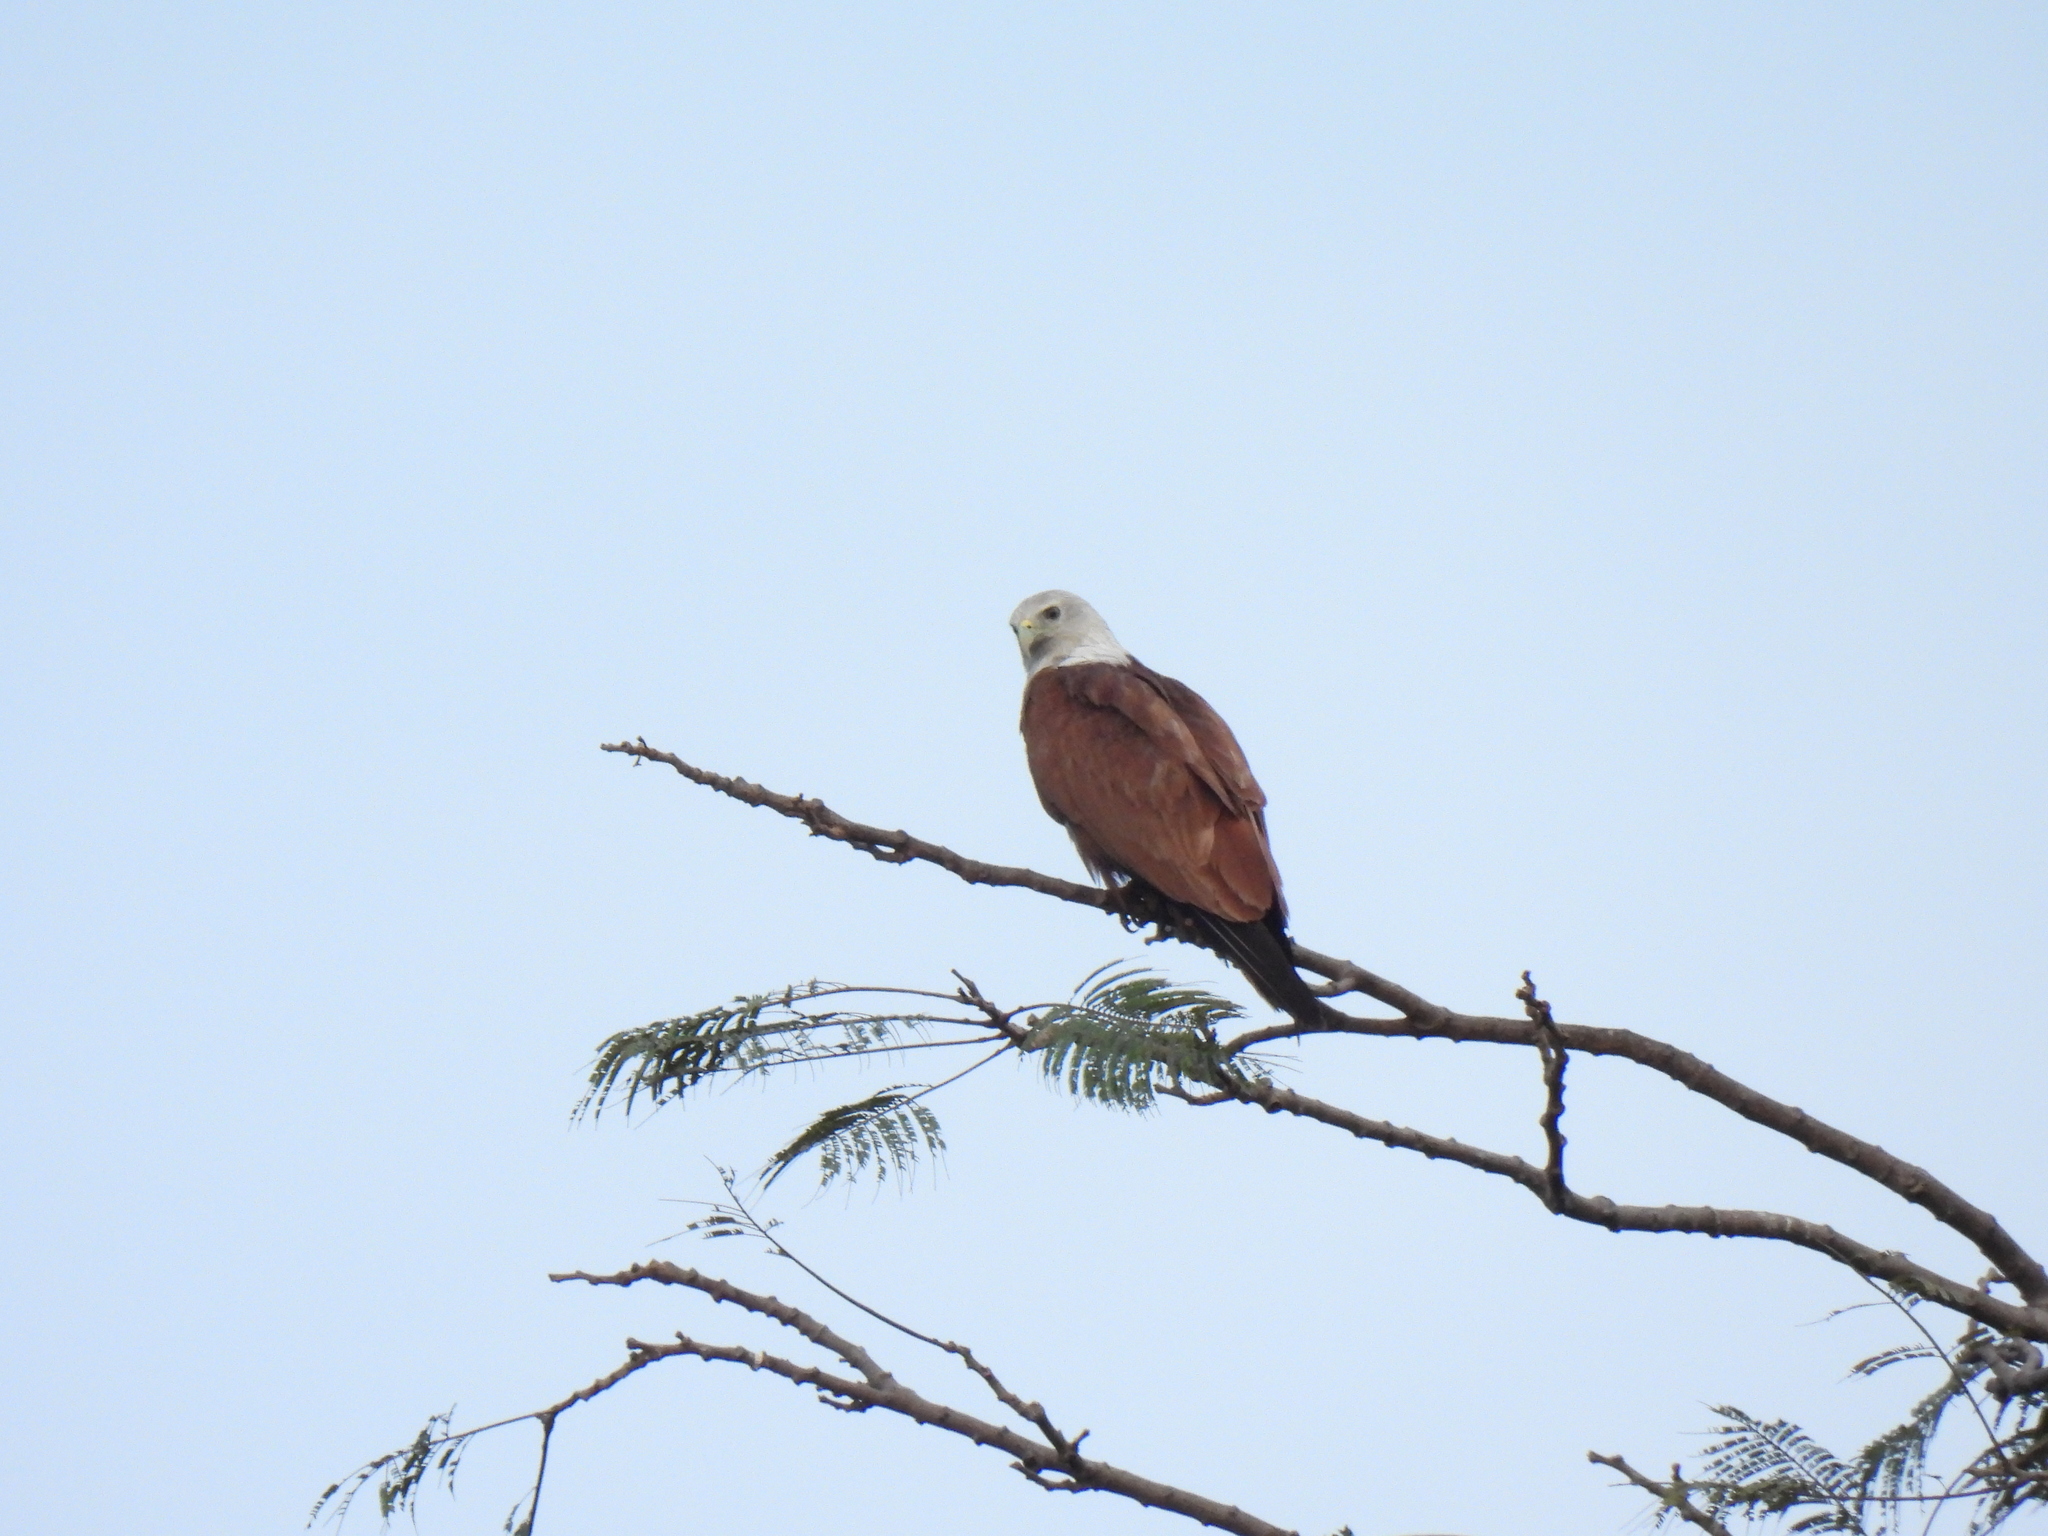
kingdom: Animalia
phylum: Chordata
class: Aves
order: Accipitriformes
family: Accipitridae
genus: Haliastur
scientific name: Haliastur indus
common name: Brahminy kite
